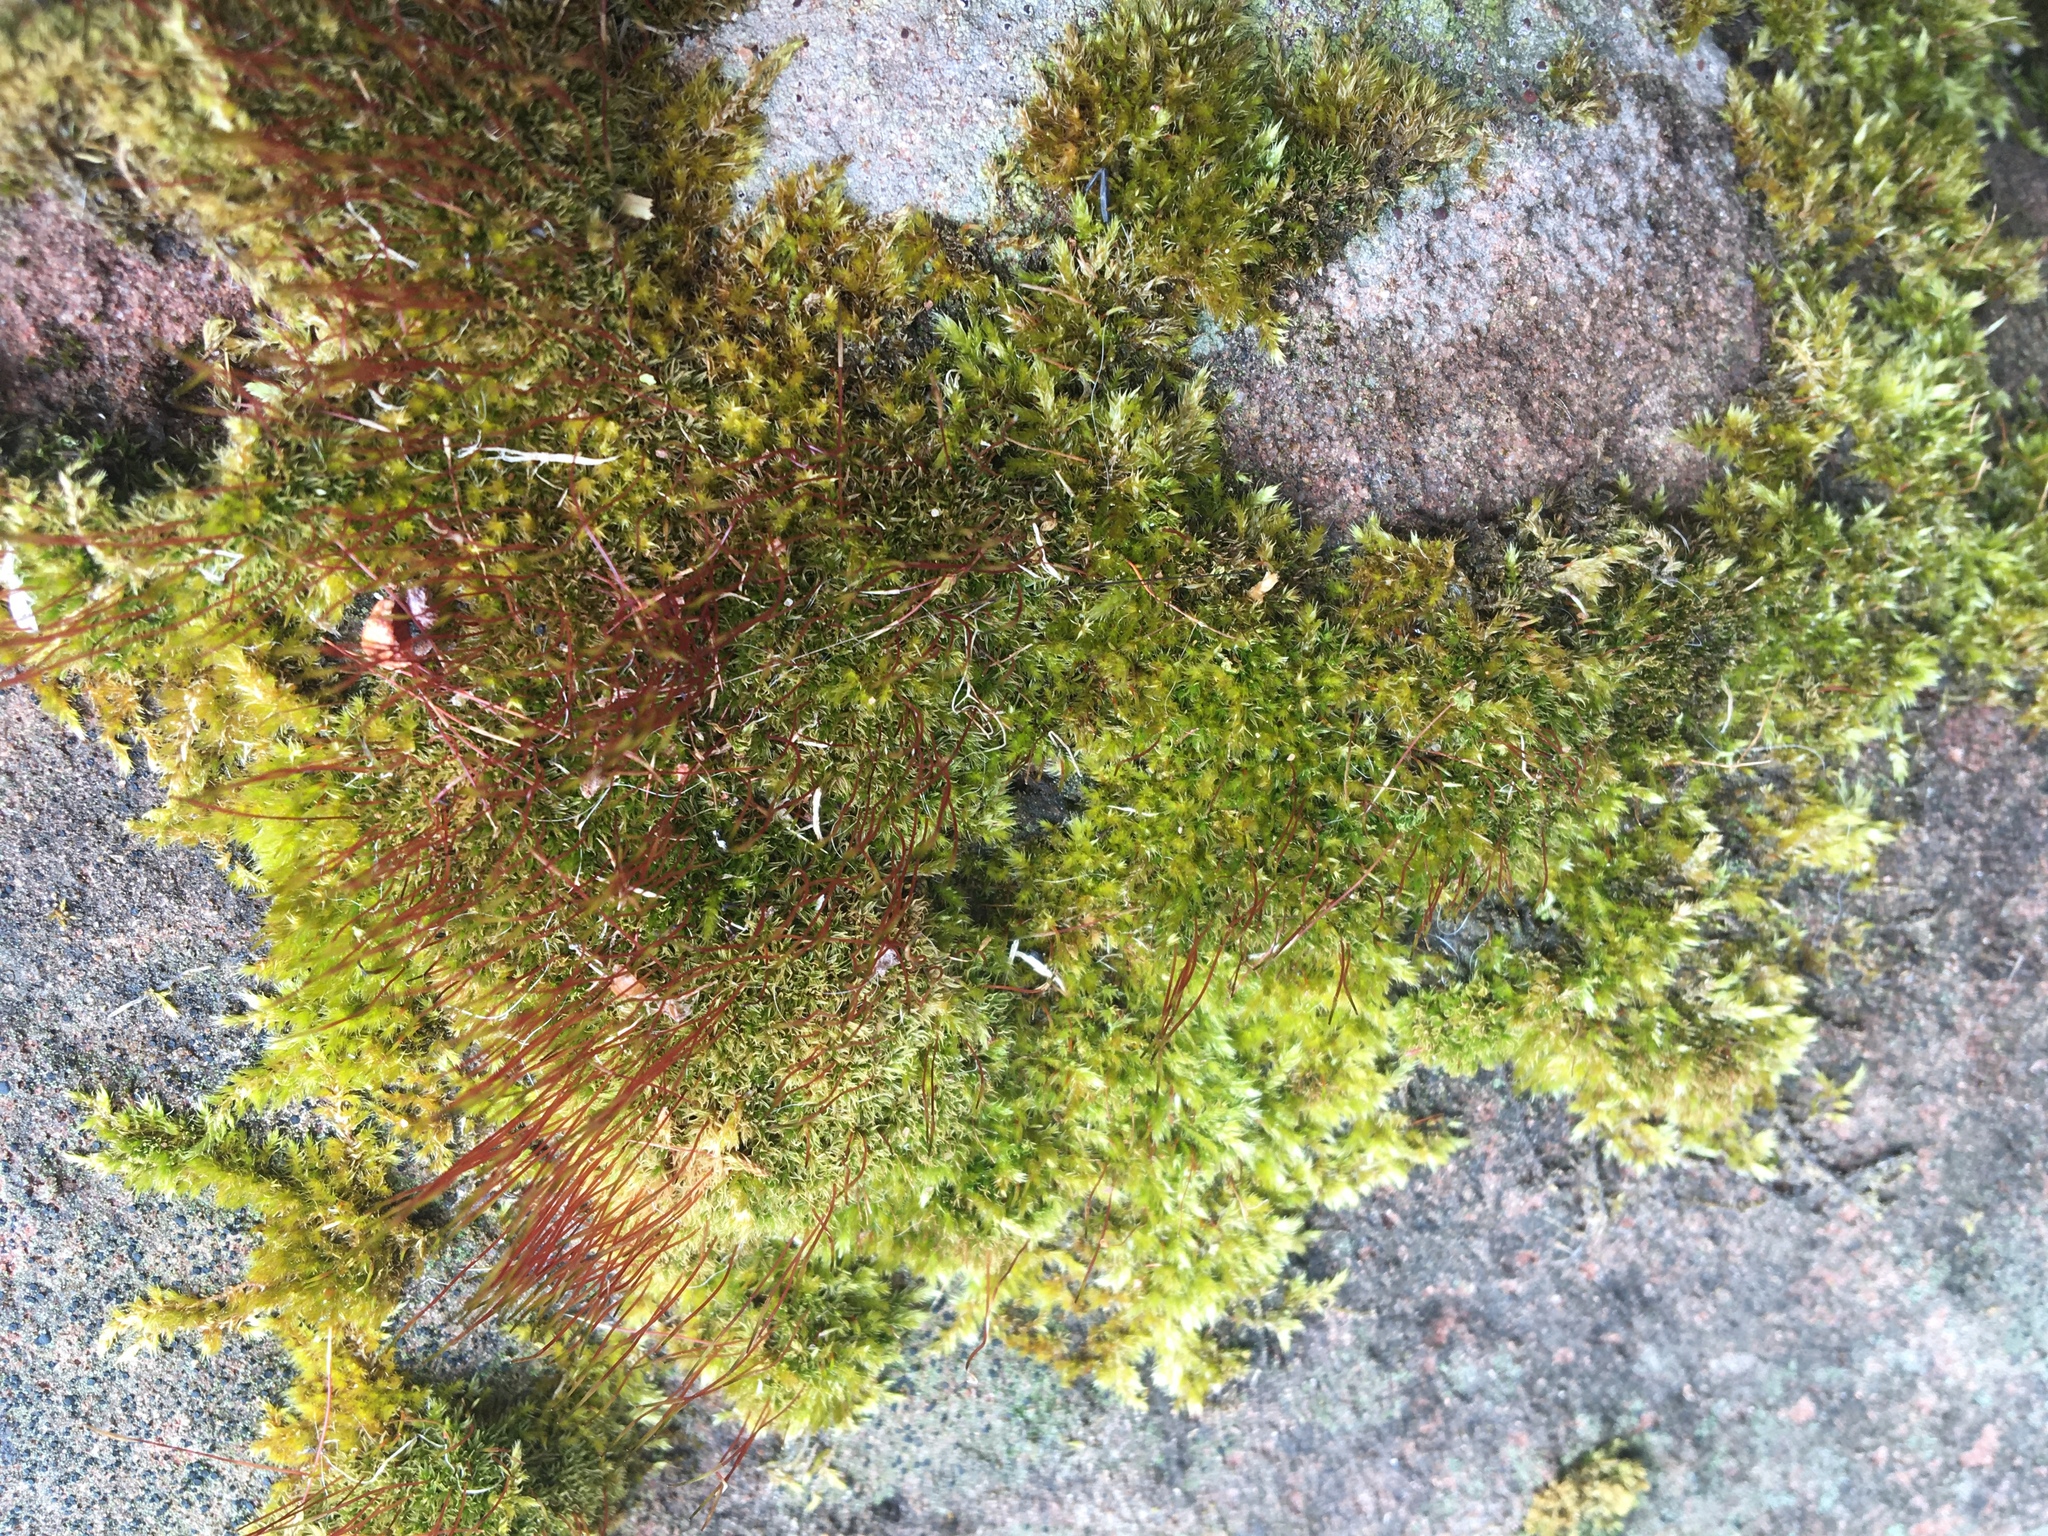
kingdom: Plantae
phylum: Bryophyta
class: Bryopsida
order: Dicranales
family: Ditrichaceae
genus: Ceratodon
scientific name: Ceratodon purpureus
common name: Redshank
